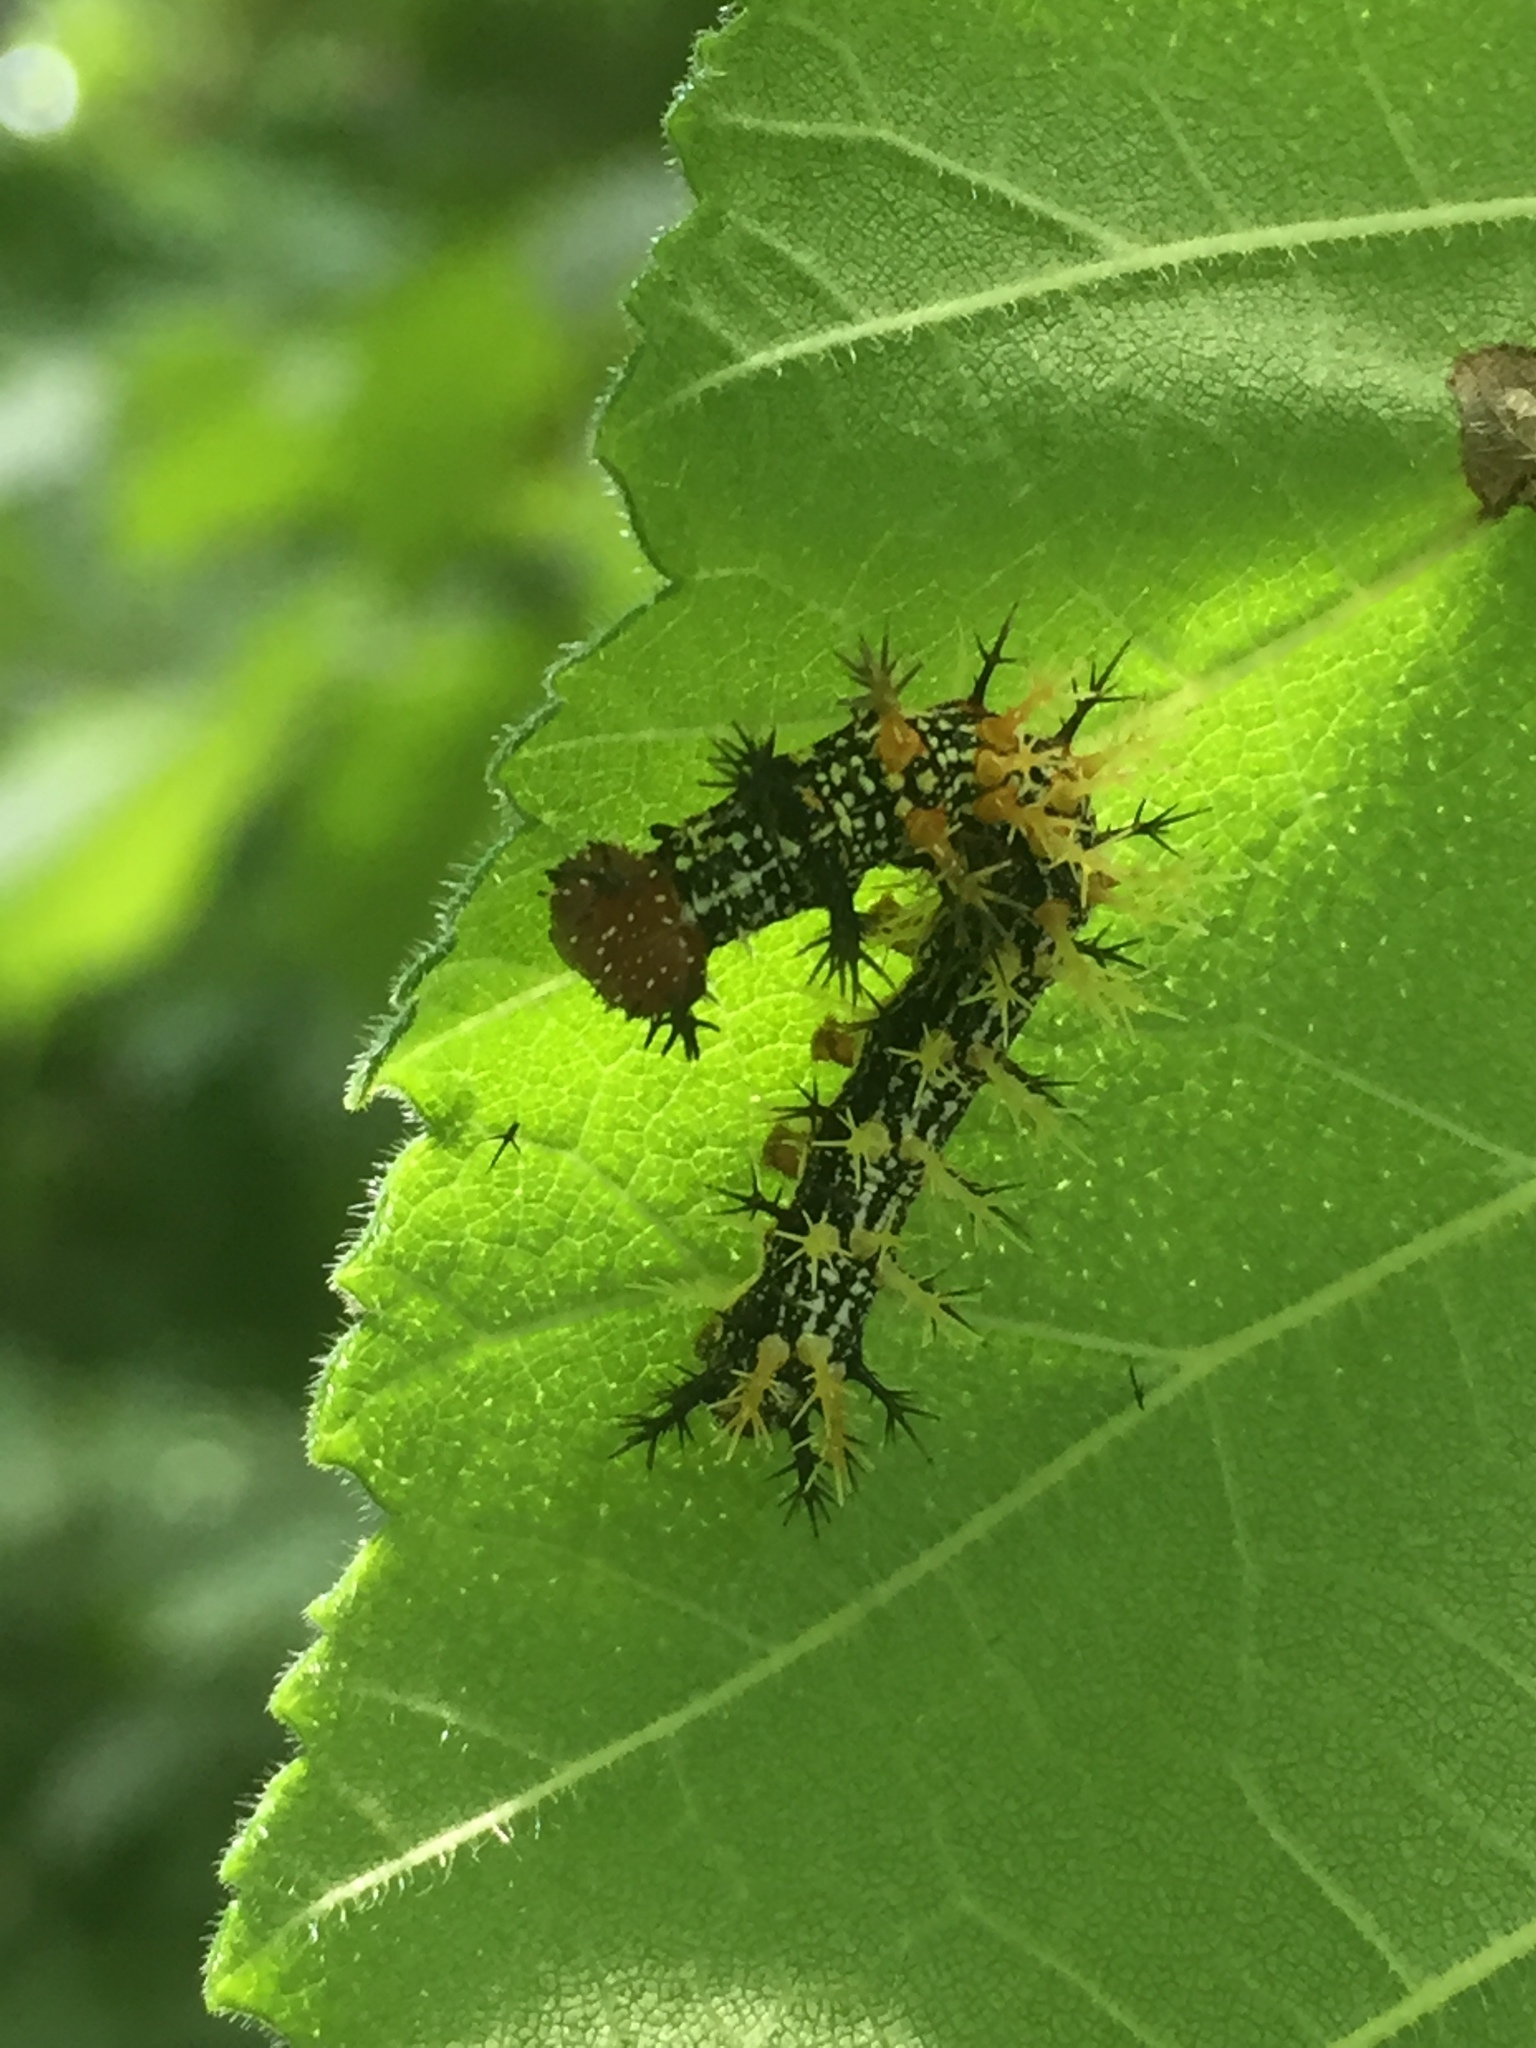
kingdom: Animalia
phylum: Arthropoda
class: Insecta
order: Lepidoptera
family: Nymphalidae
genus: Polygonia
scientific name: Polygonia interrogationis
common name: Question mark
